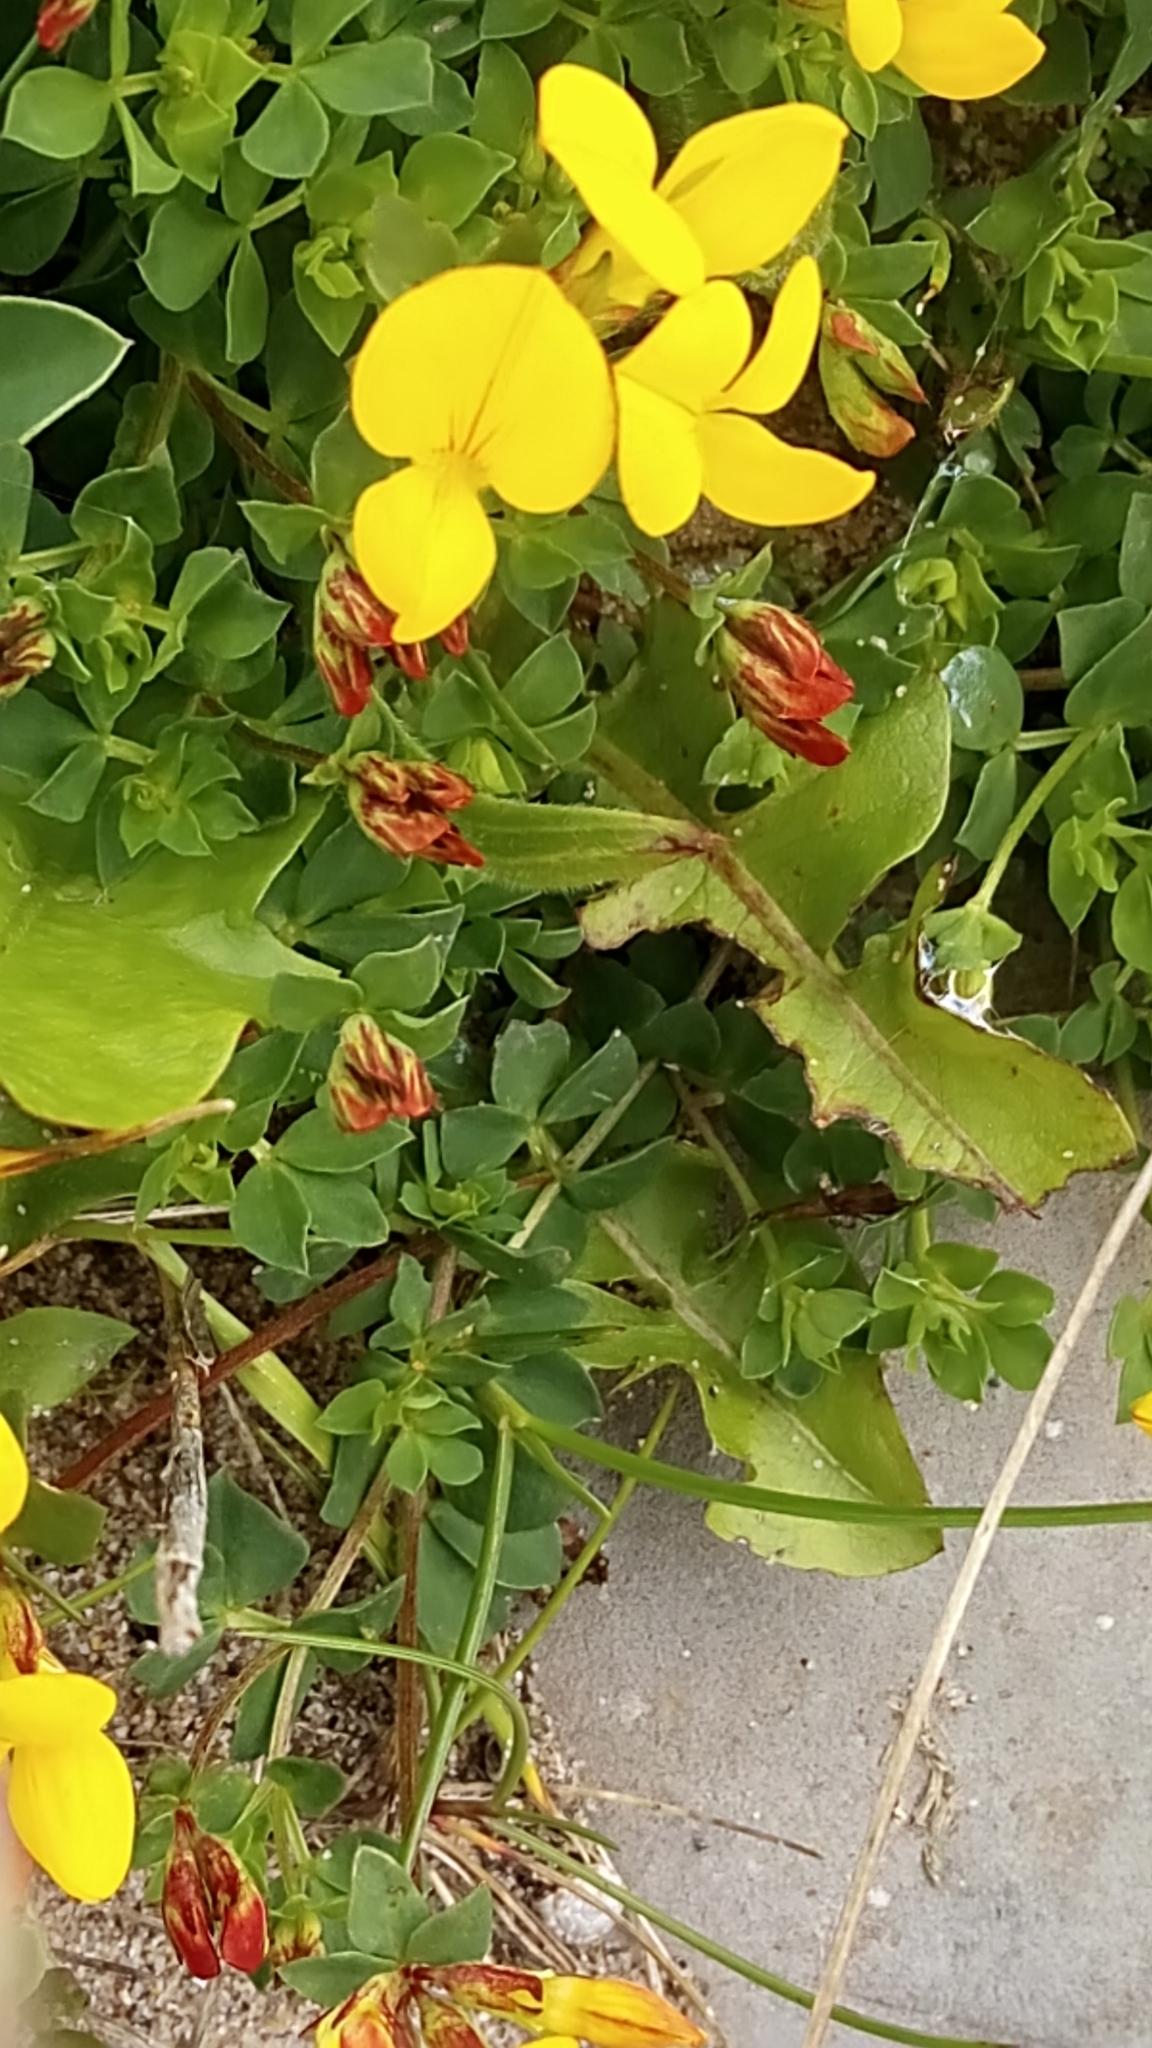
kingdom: Plantae
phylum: Tracheophyta
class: Magnoliopsida
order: Fabales
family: Fabaceae
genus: Lotus
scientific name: Lotus corniculatus
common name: Common bird's-foot-trefoil
